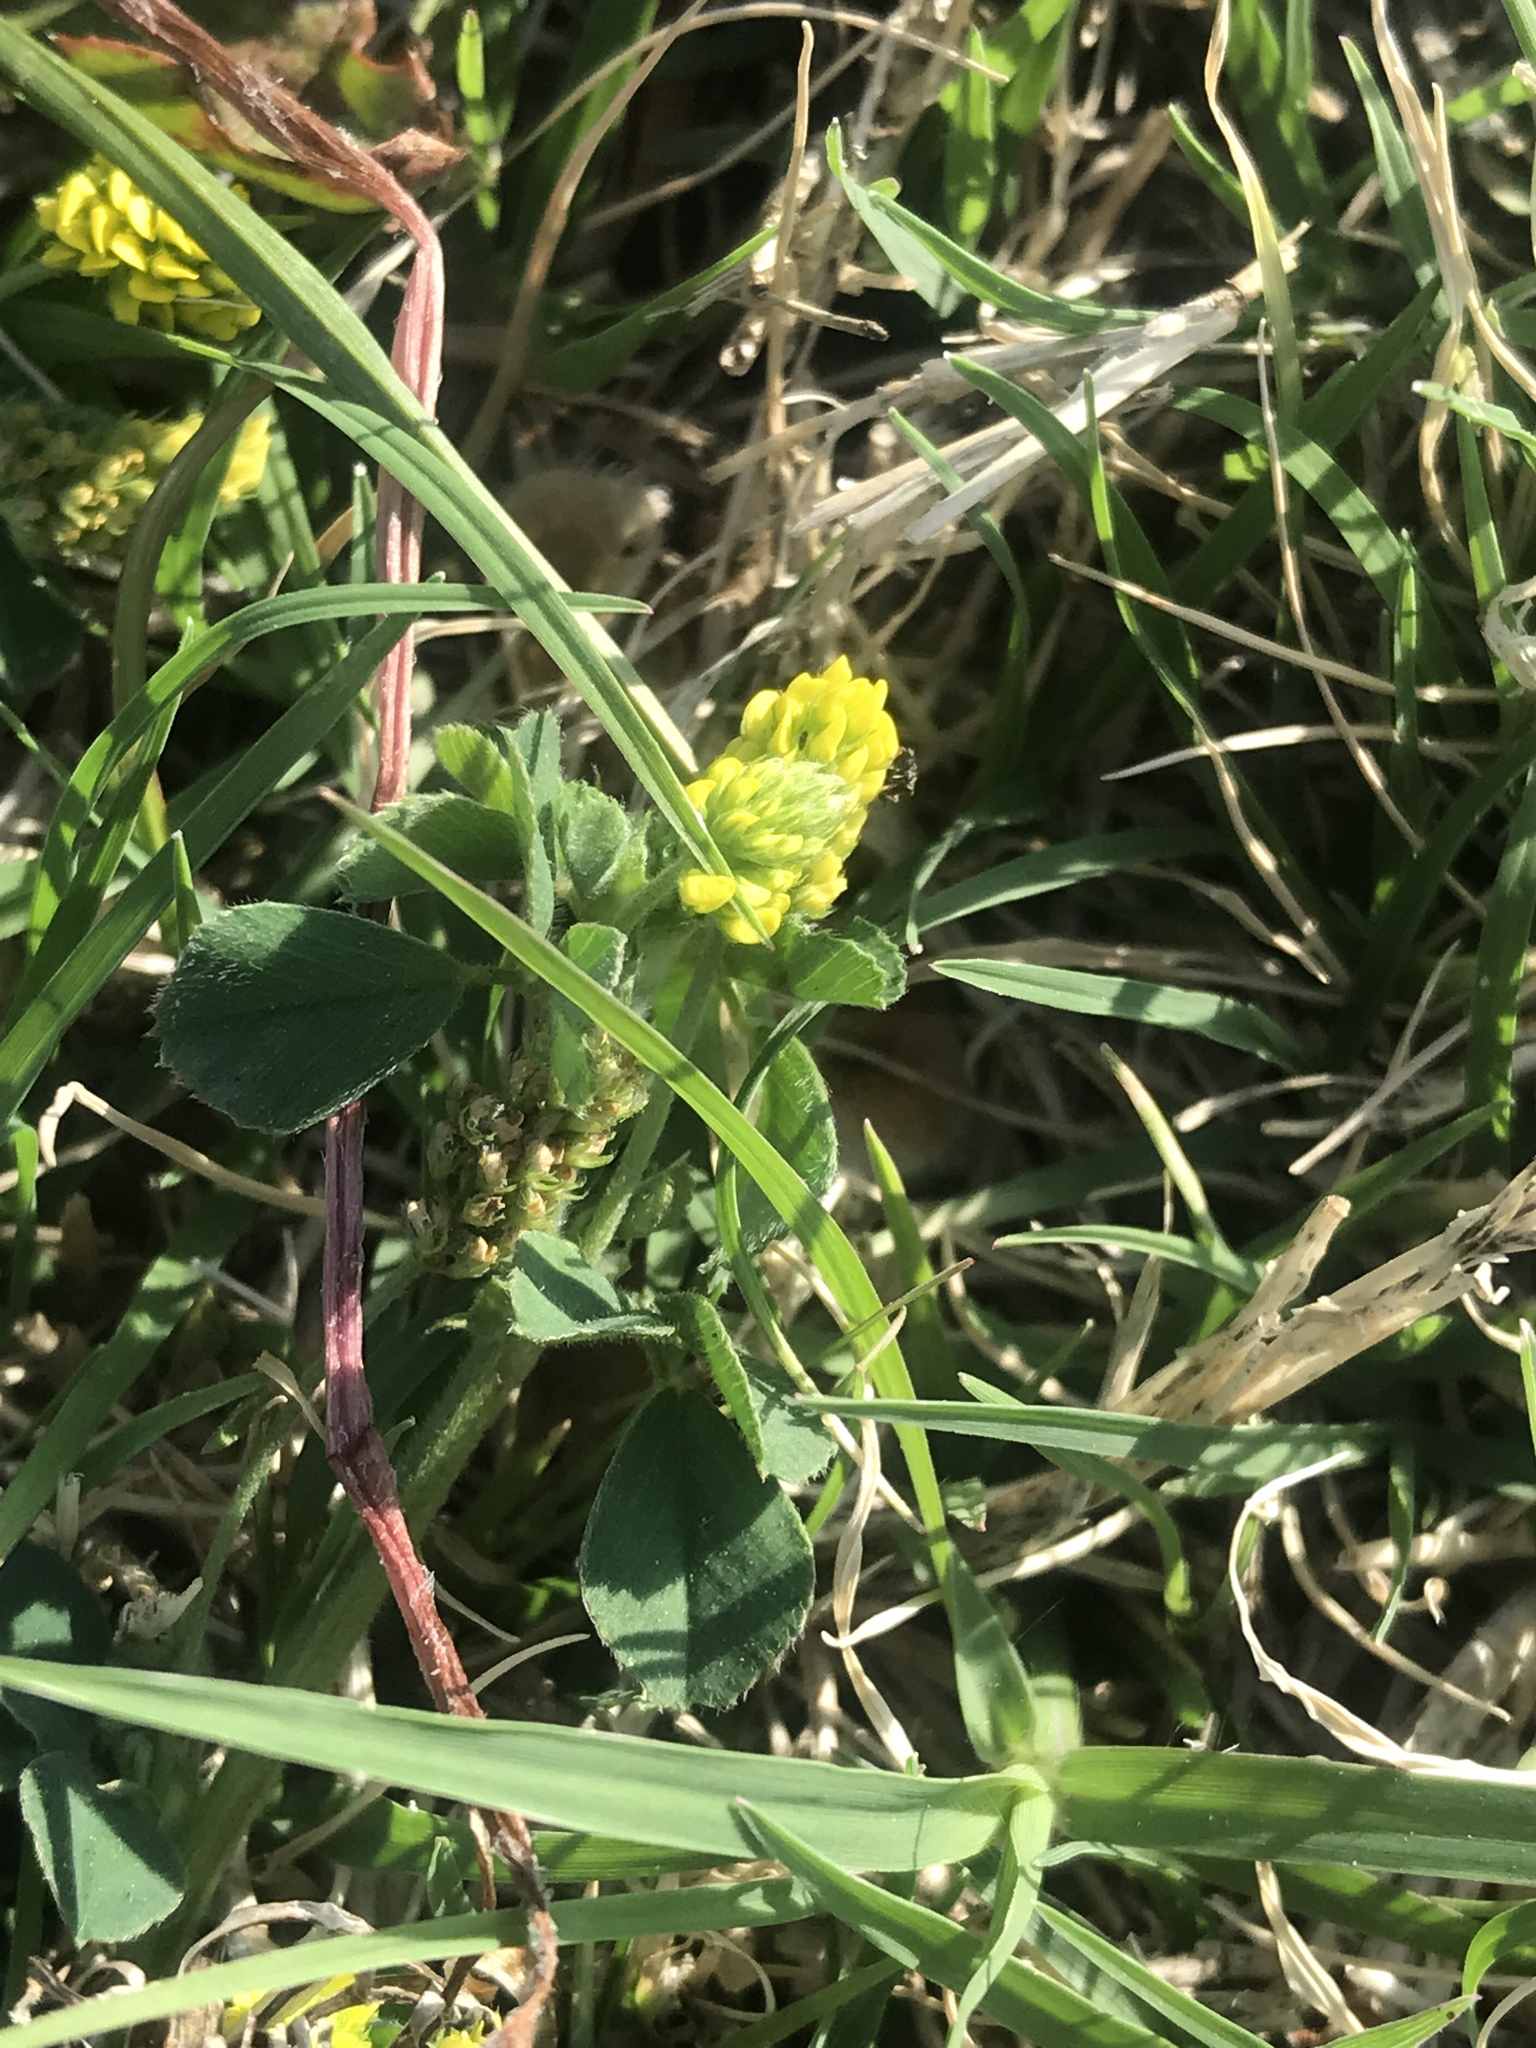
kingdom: Plantae
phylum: Tracheophyta
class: Magnoliopsida
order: Fabales
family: Fabaceae
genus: Medicago
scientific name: Medicago lupulina
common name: Black medick
